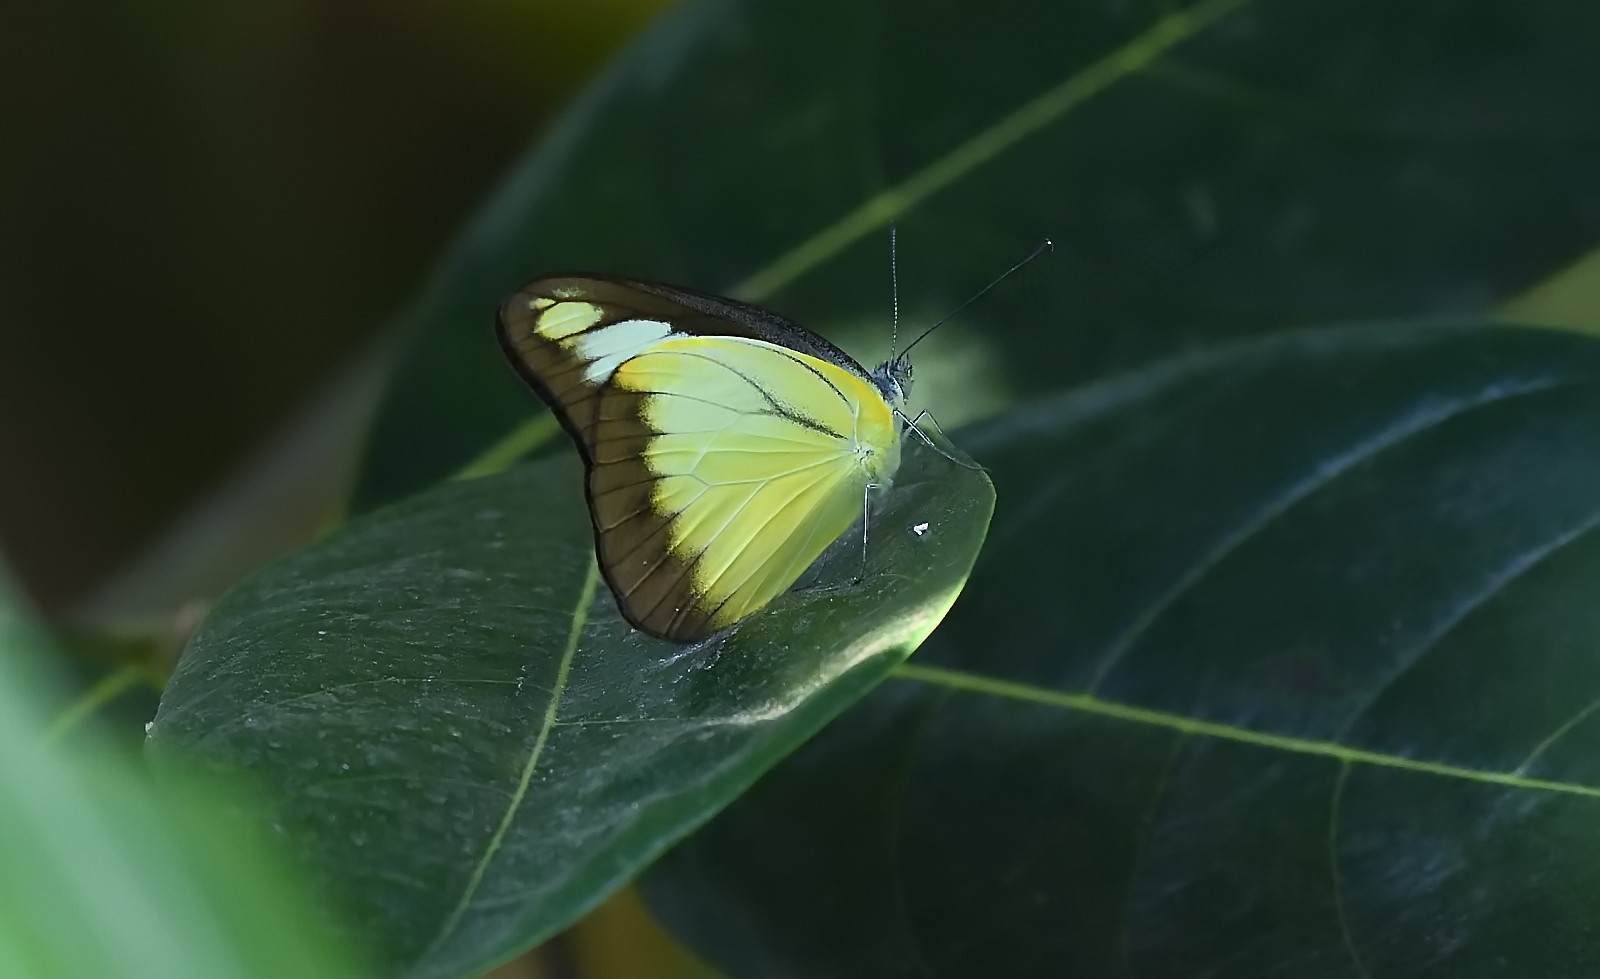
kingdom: Animalia
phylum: Arthropoda
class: Insecta
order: Lepidoptera
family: Pieridae
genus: Appias
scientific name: Appias lyncida
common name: Chocolate albatross
